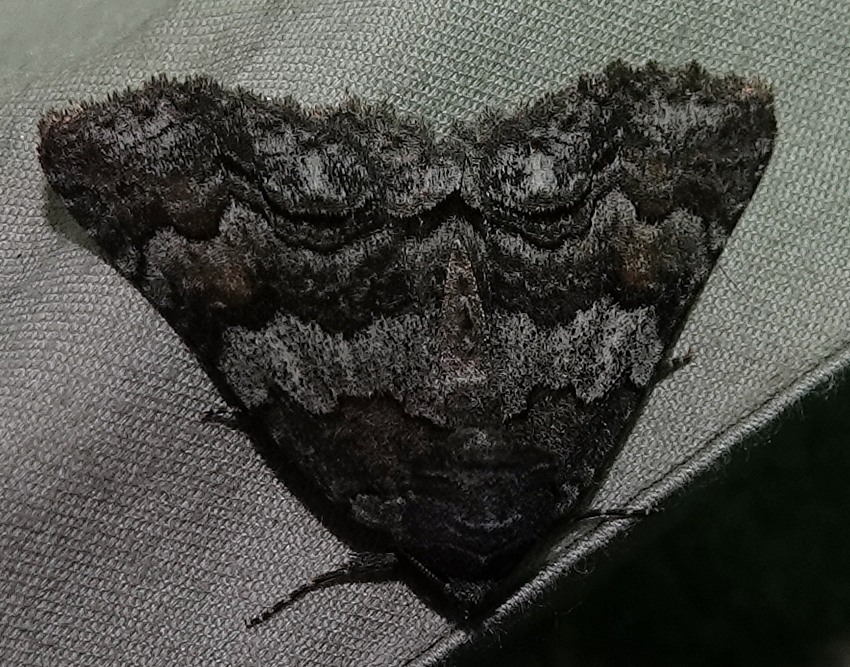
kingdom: Animalia
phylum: Arthropoda
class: Insecta
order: Lepidoptera
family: Erebidae
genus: Zale
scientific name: Zale duplicata
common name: Pine false looper moth
